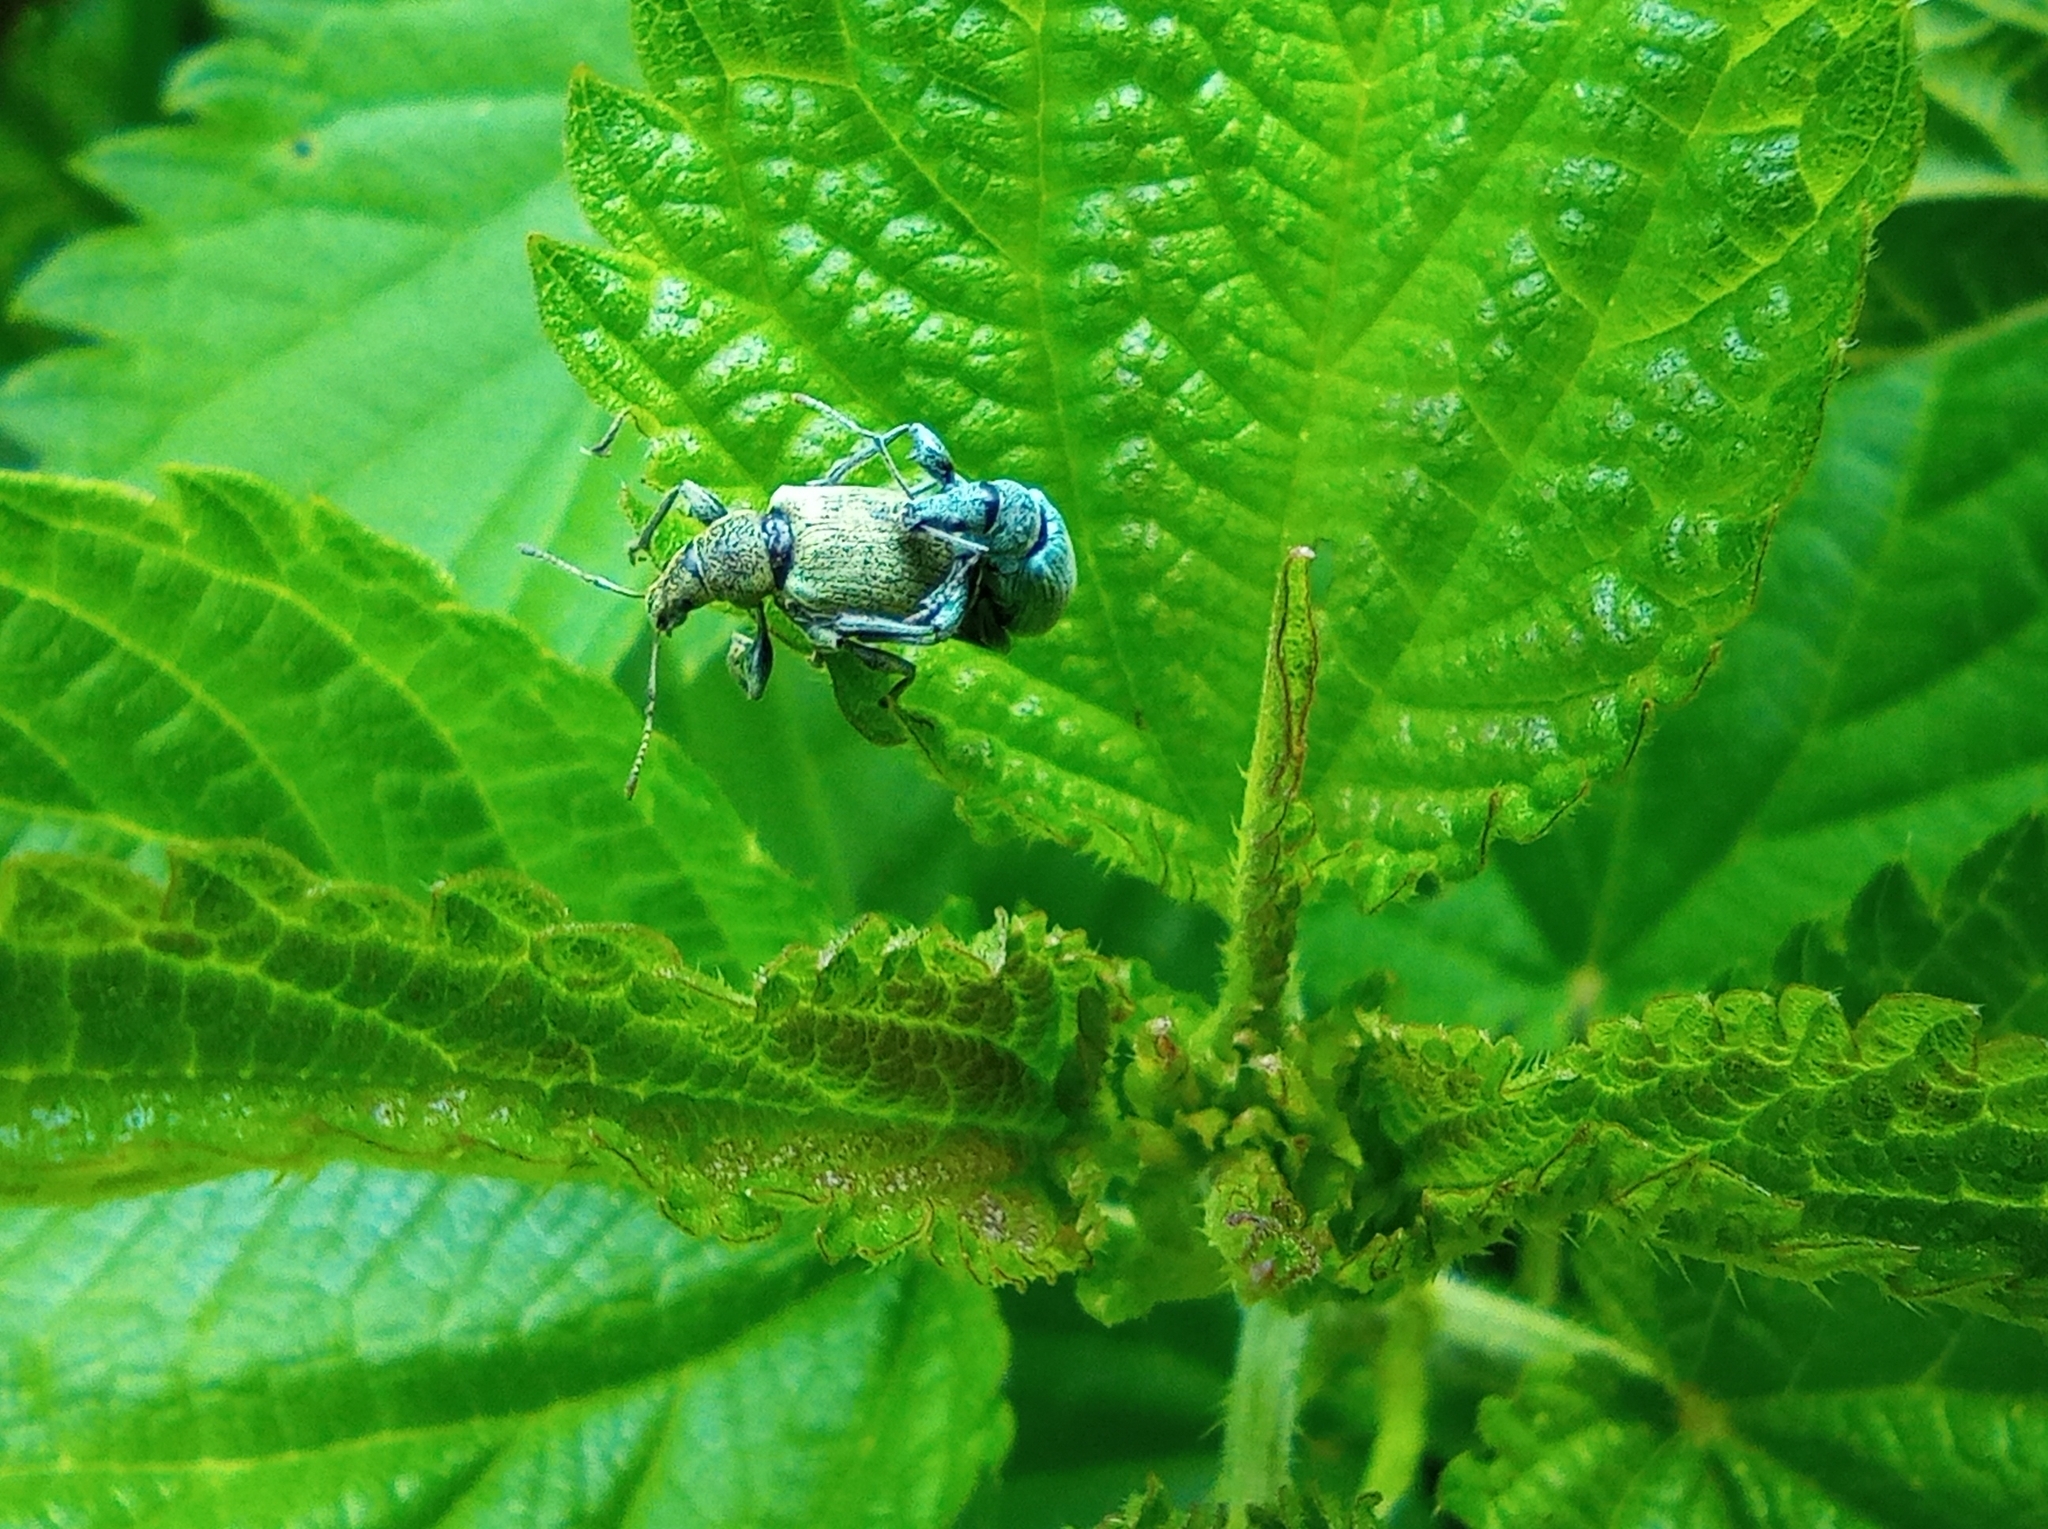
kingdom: Animalia
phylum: Arthropoda
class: Insecta
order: Coleoptera
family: Curculionidae
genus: Phyllobius
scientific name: Phyllobius pomaceus
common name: Green nettle weevil
